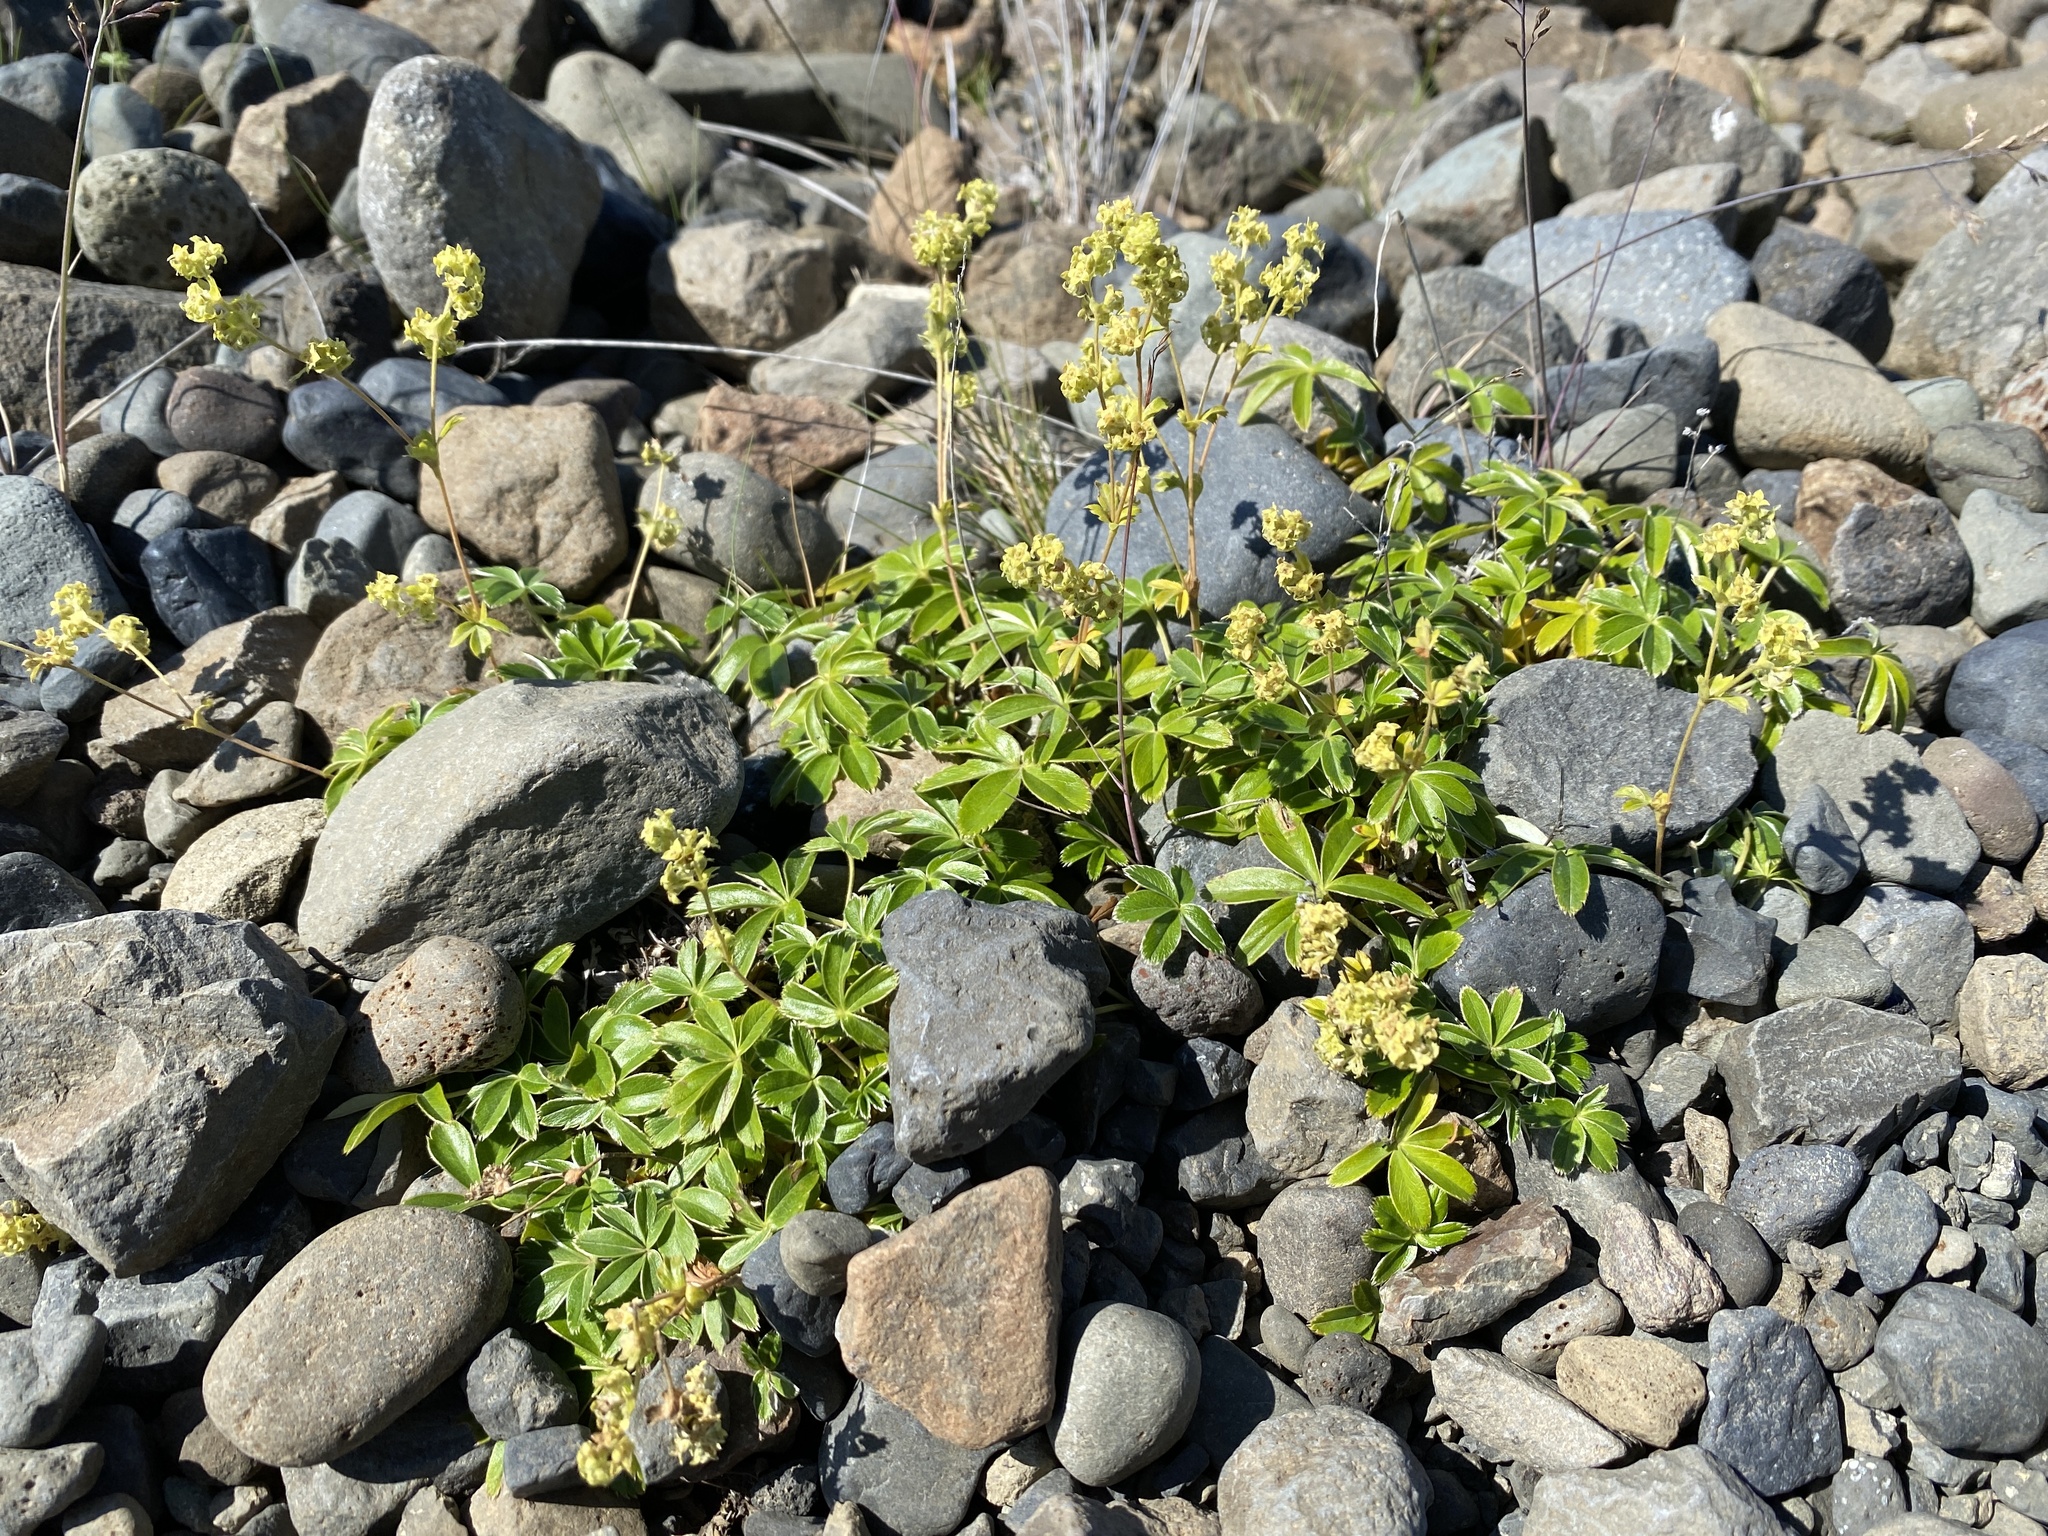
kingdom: Plantae
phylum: Tracheophyta
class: Magnoliopsida
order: Rosales
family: Rosaceae
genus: Alchemilla
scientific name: Alchemilla alpina
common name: Alpine lady's-mantle
